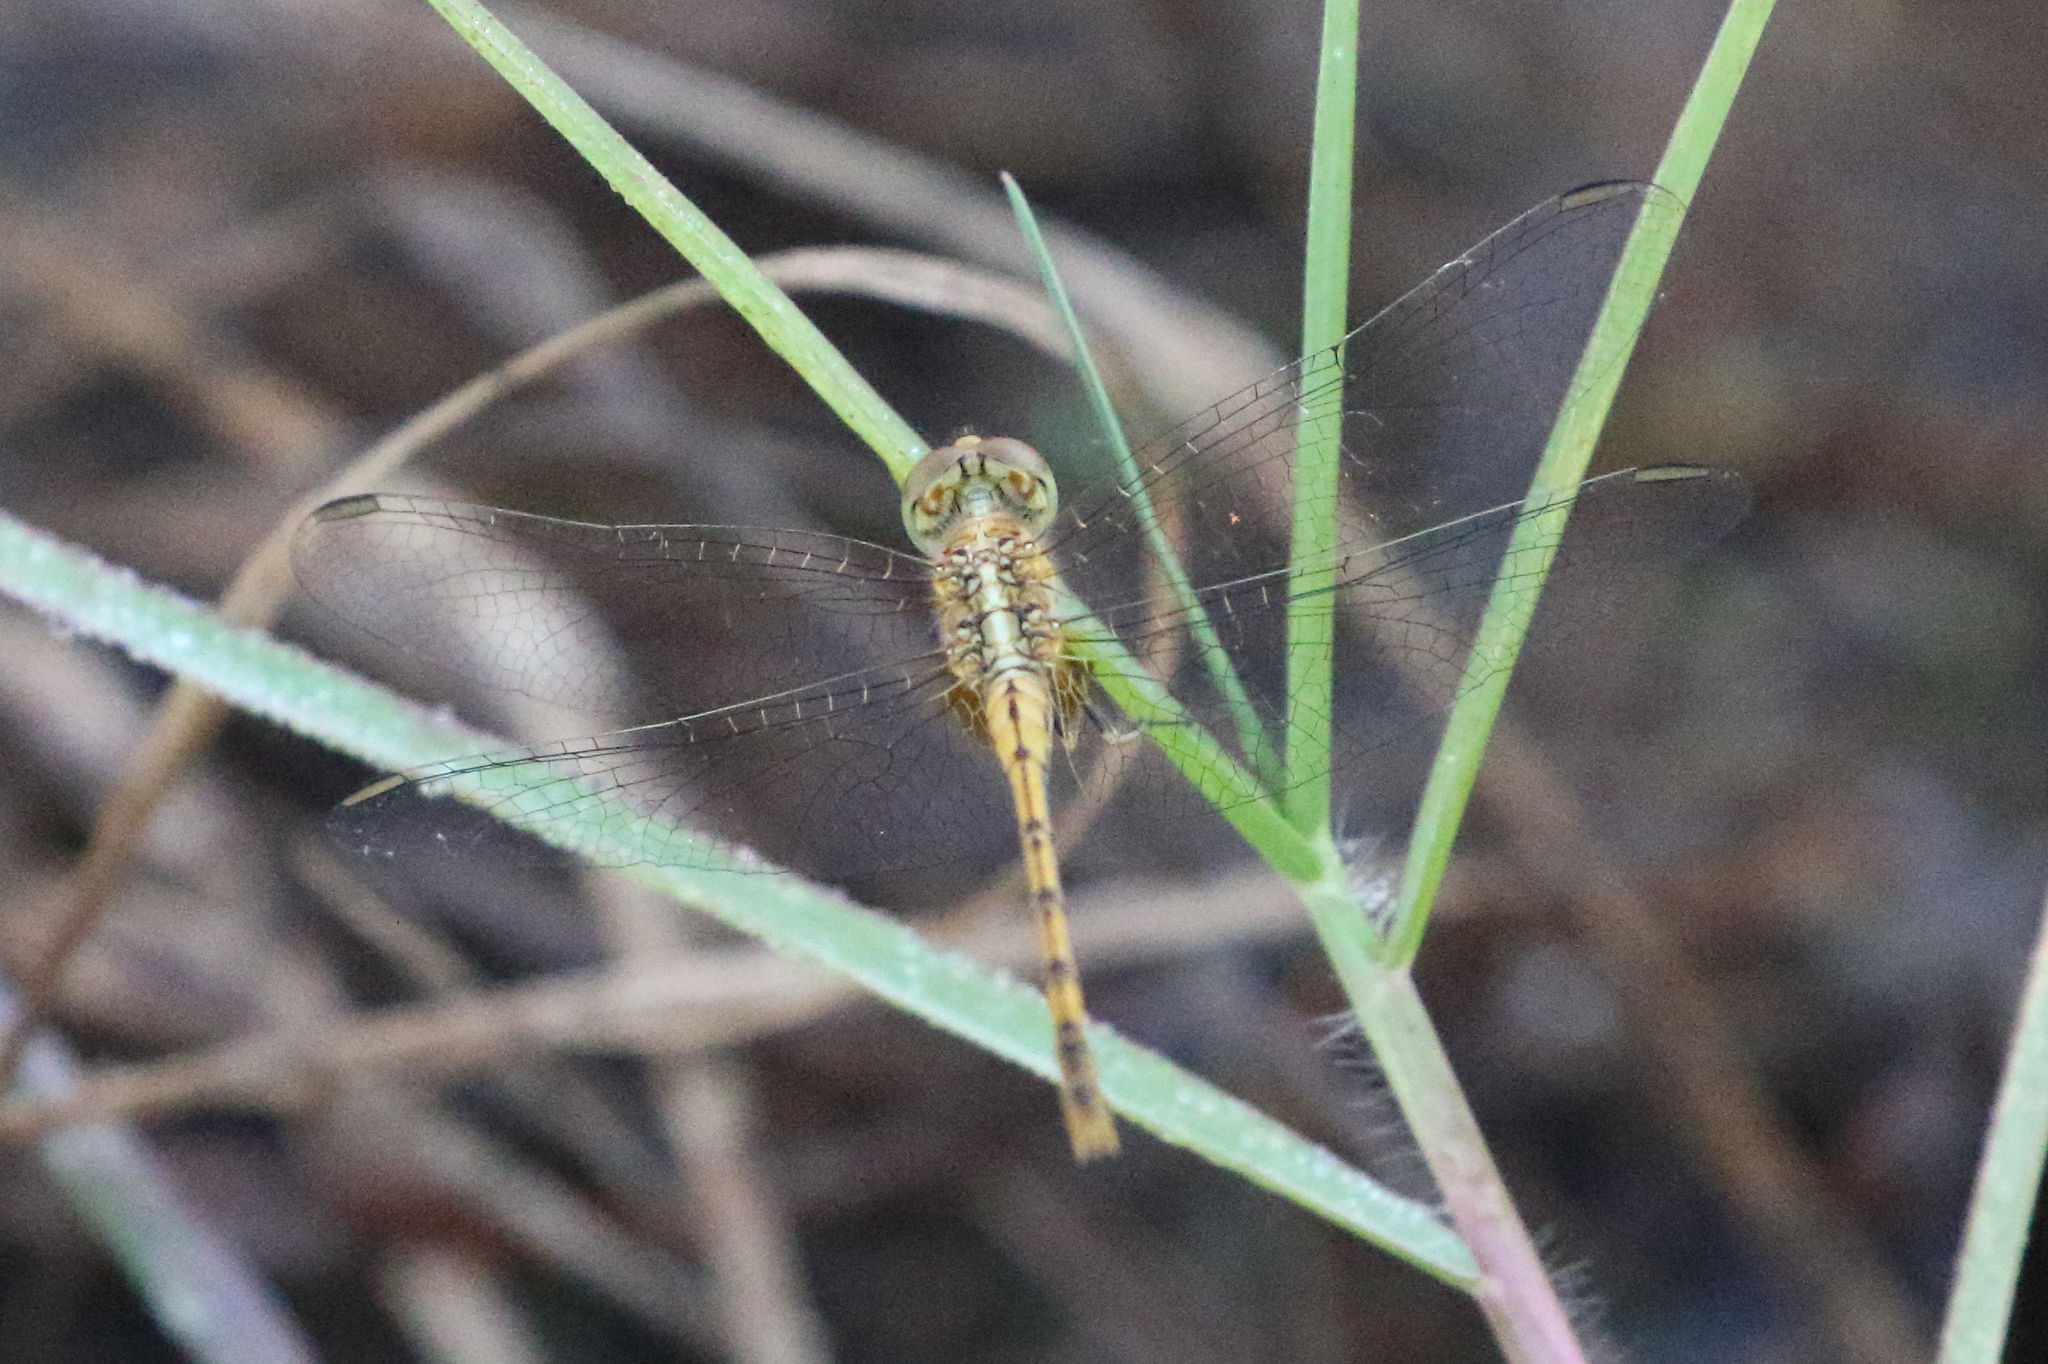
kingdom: Animalia
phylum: Arthropoda
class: Insecta
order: Odonata
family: Libellulidae
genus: Diplacodes
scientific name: Diplacodes bipunctata
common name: Red percher dragonfly
